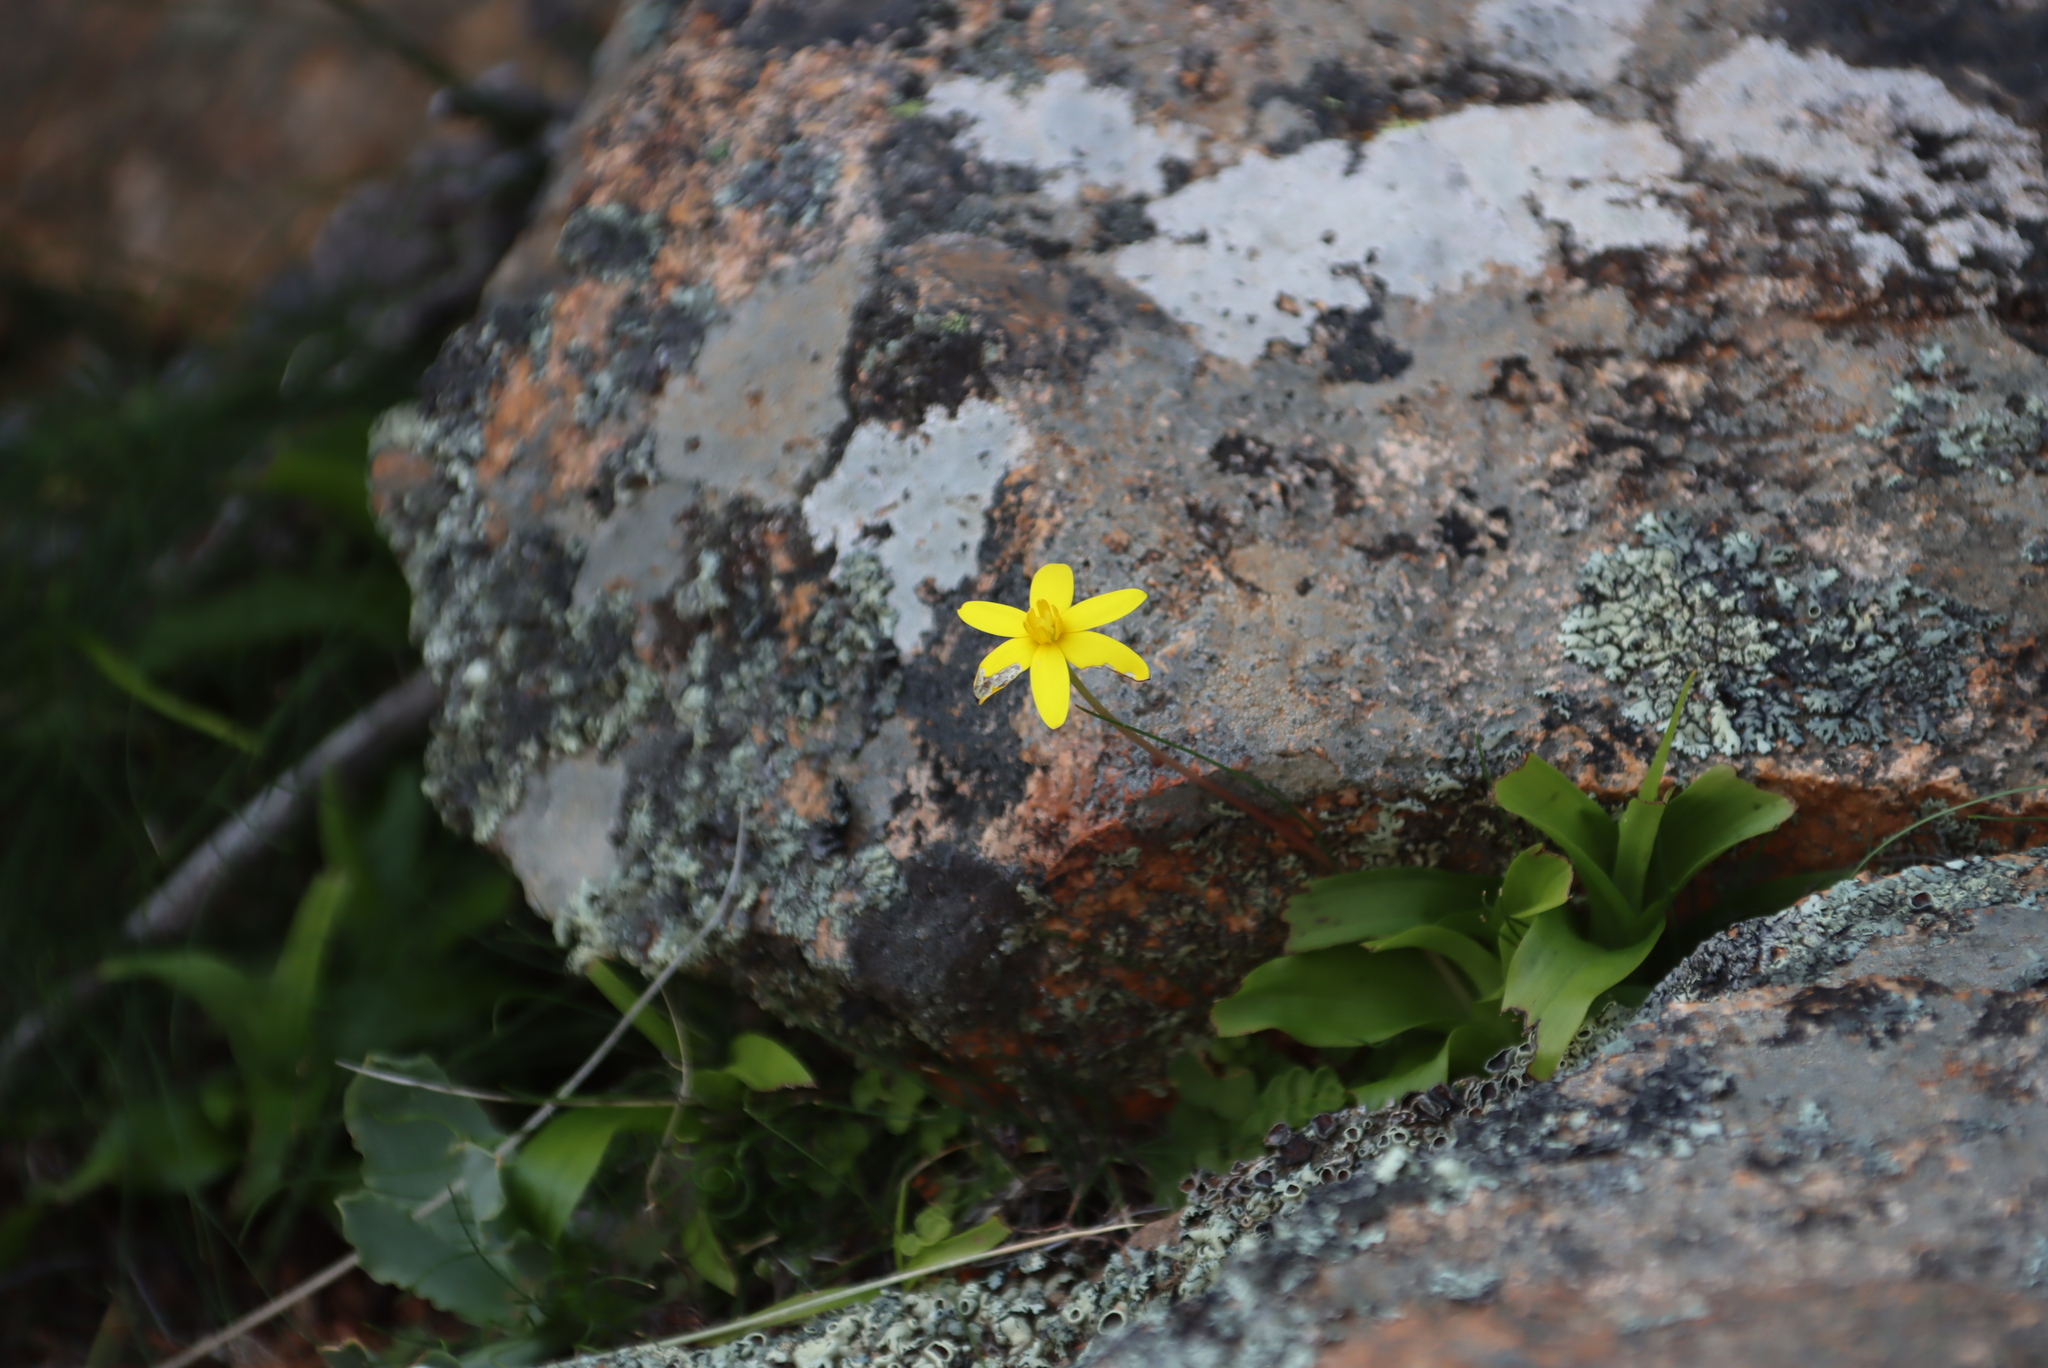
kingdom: Plantae
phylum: Tracheophyta
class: Liliopsida
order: Asparagales
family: Hypoxidaceae
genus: Pauridia
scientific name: Pauridia gracilipes
